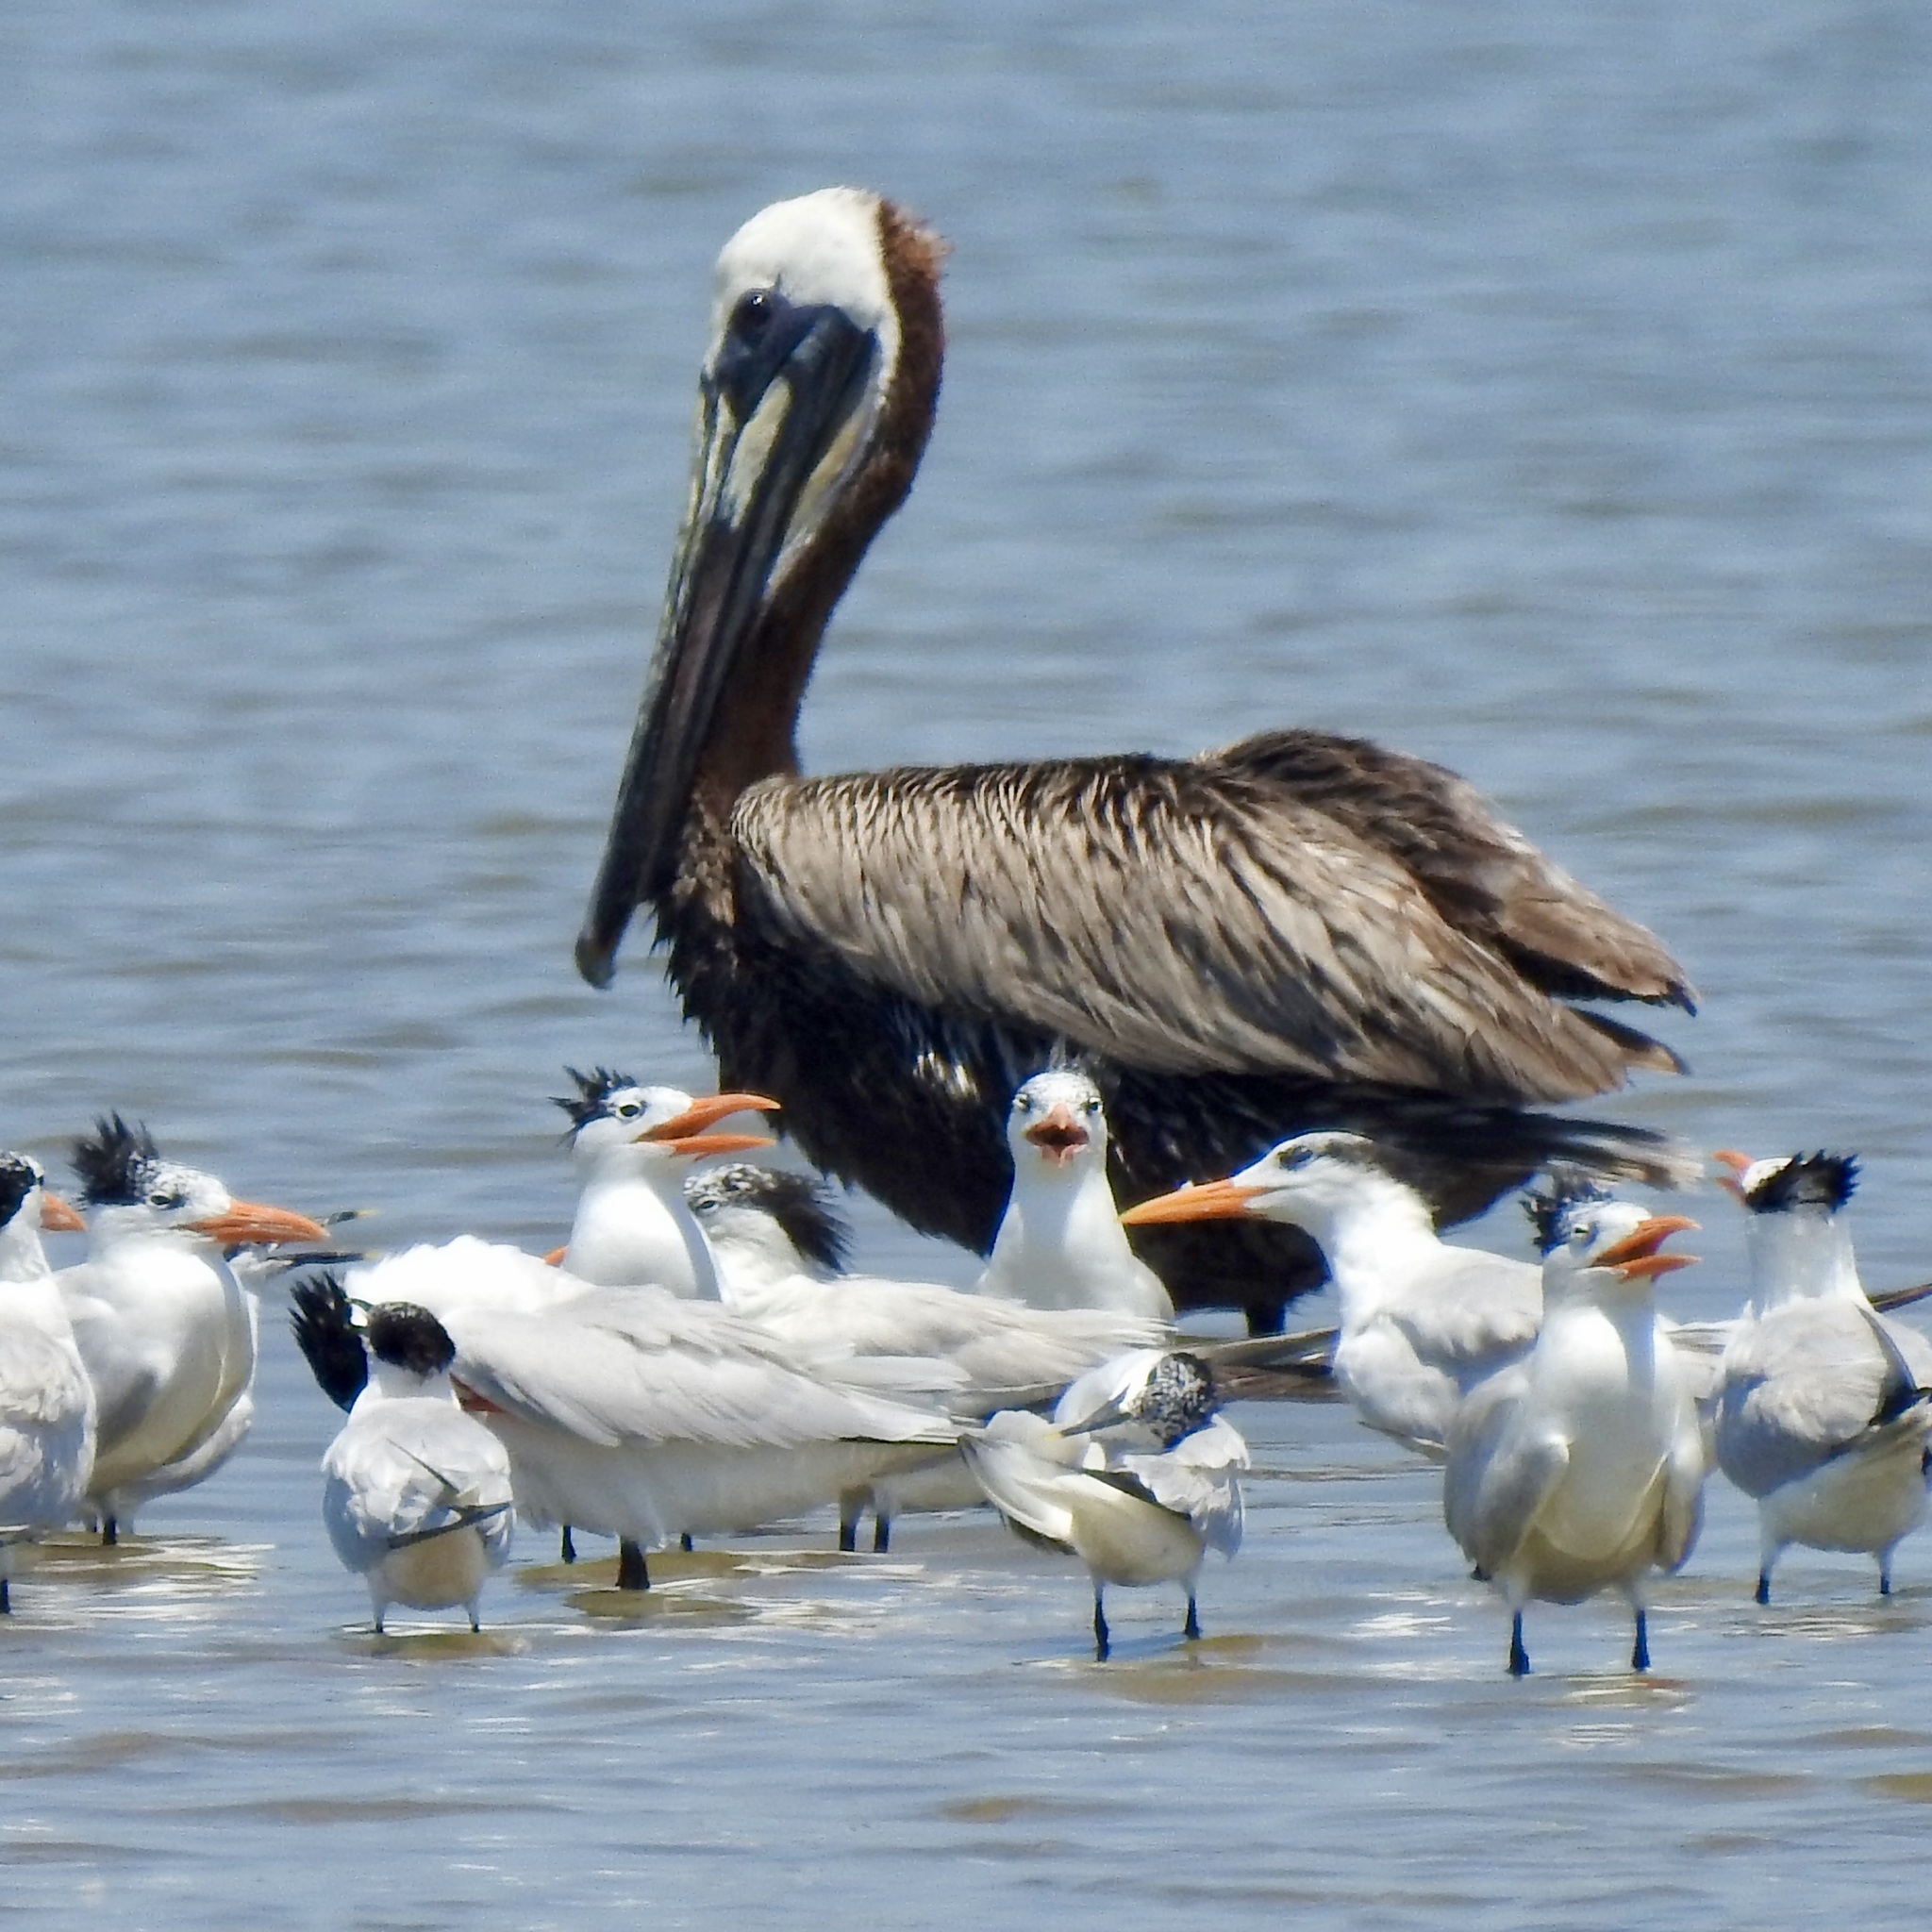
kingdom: Animalia
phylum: Chordata
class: Aves
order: Charadriiformes
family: Laridae
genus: Thalasseus
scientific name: Thalasseus maximus
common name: Royal tern
